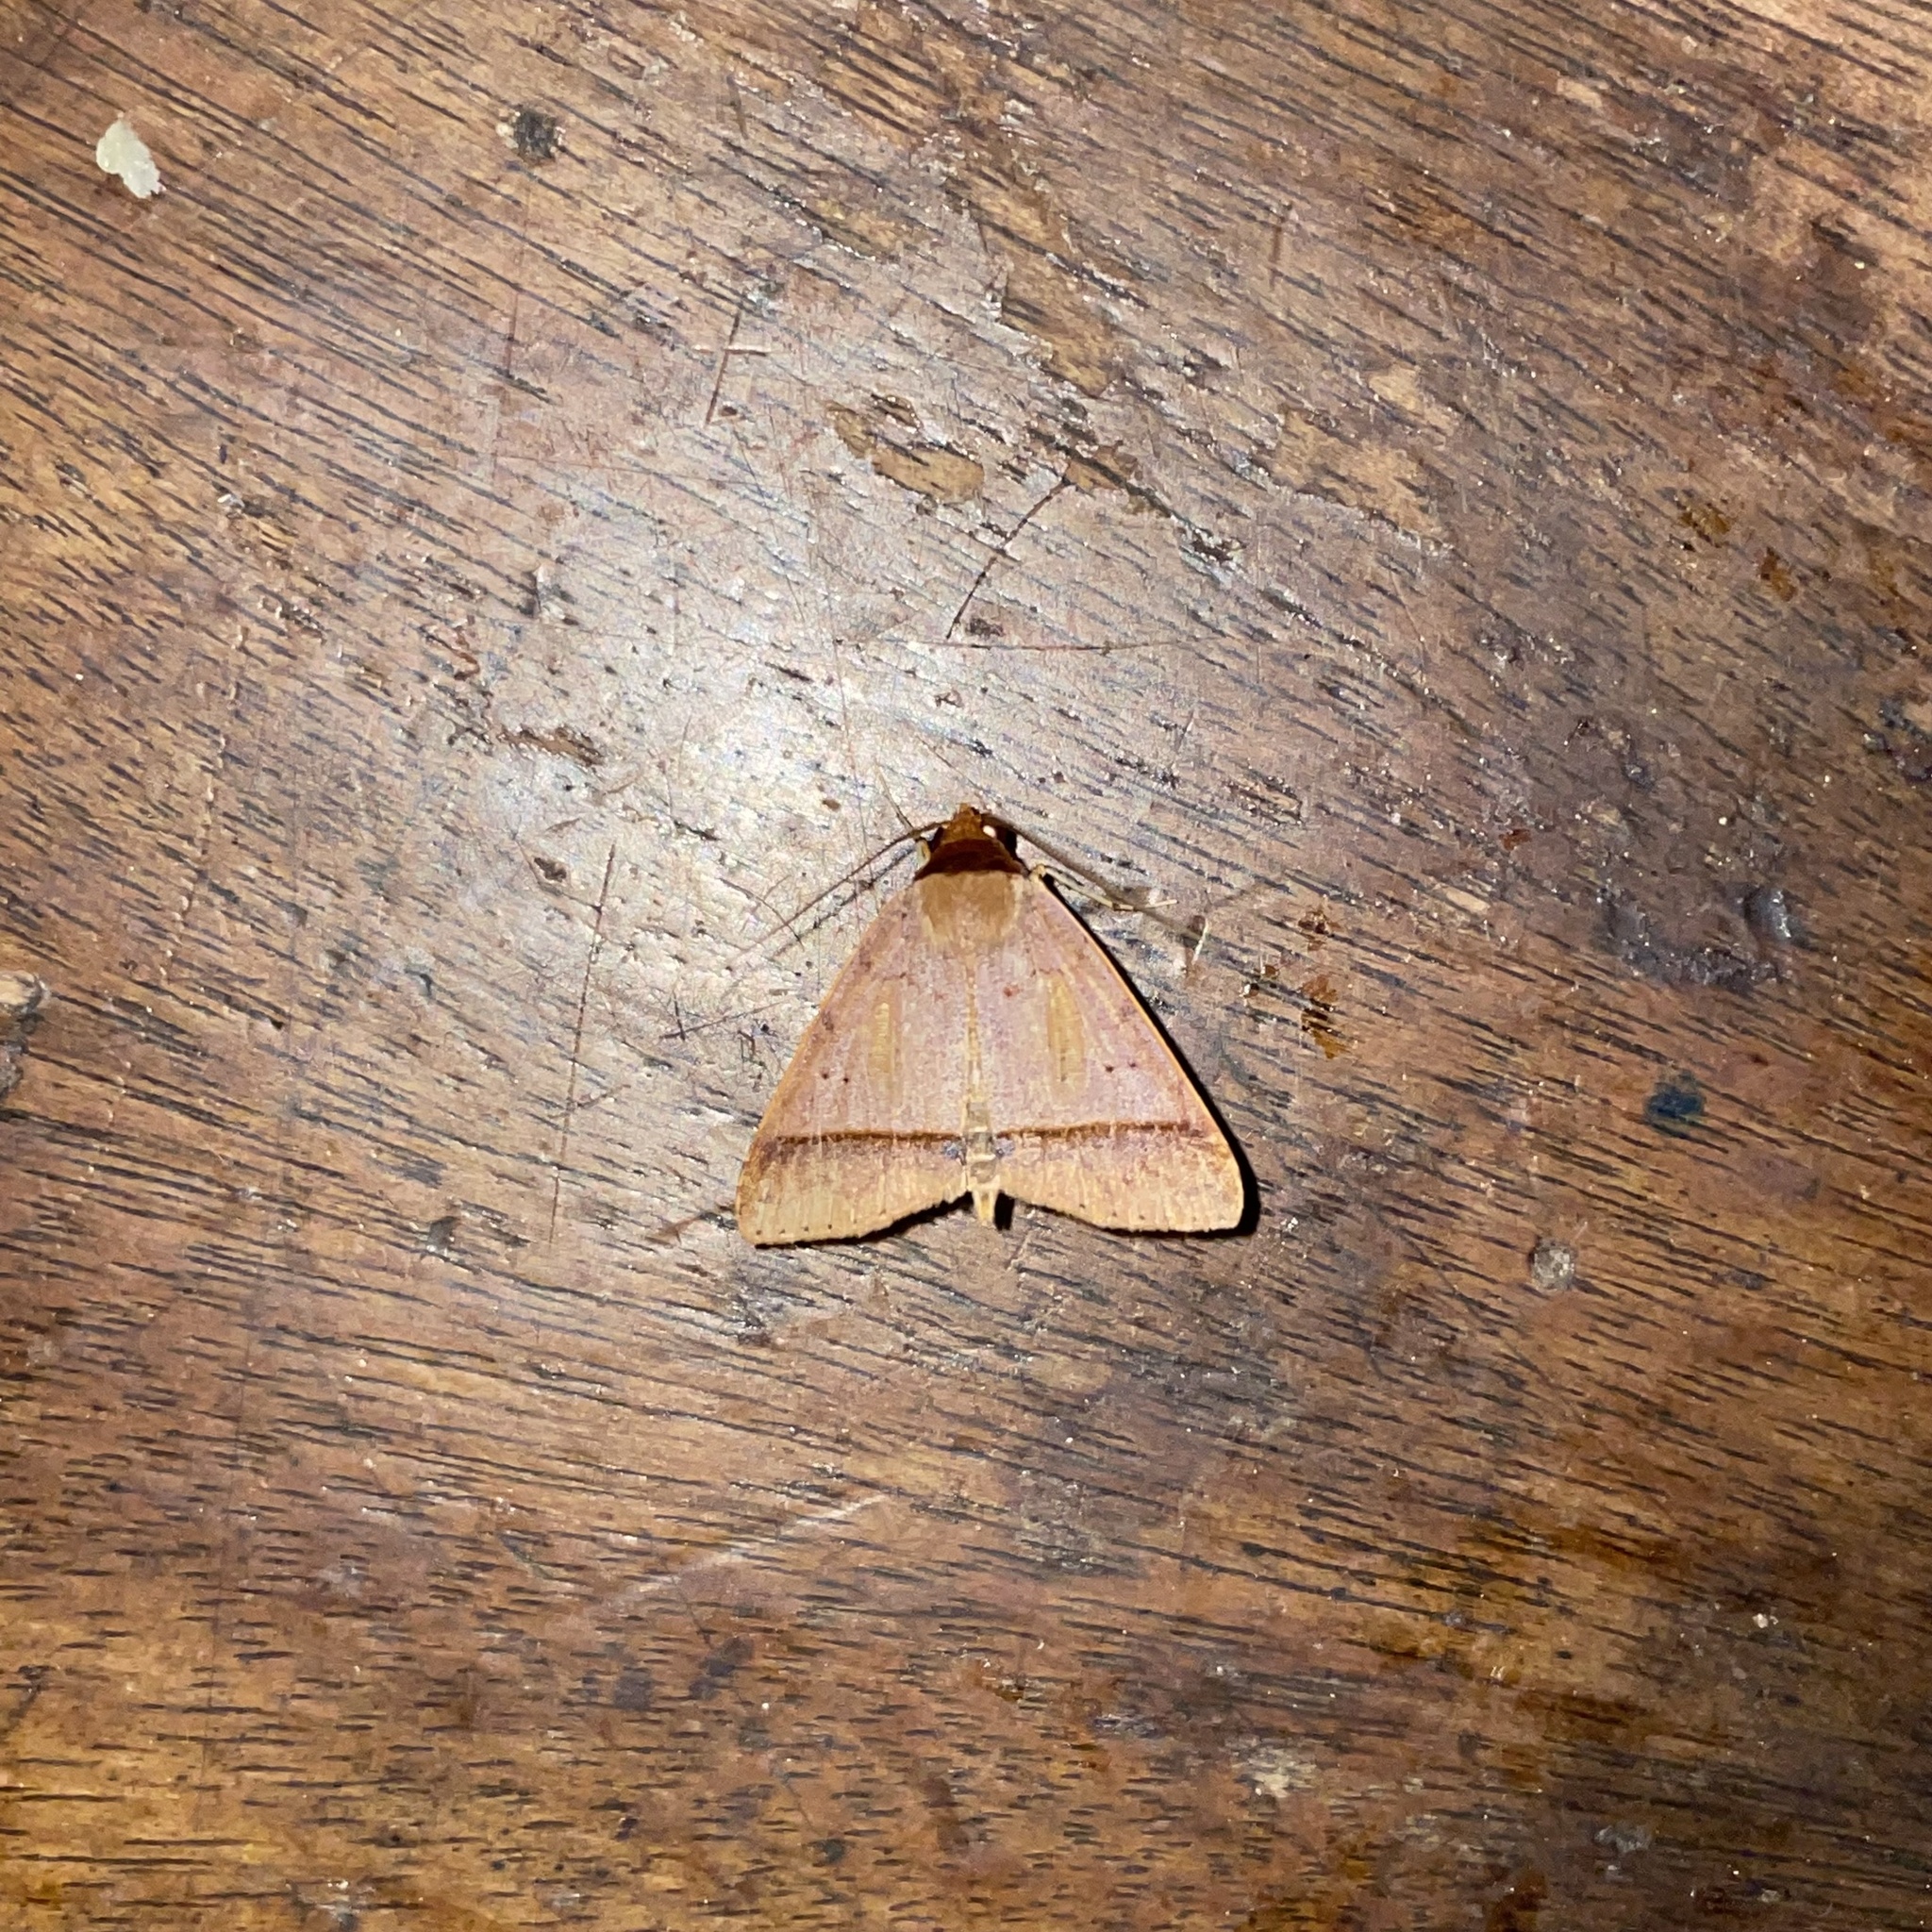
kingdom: Animalia
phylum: Arthropoda
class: Insecta
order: Lepidoptera
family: Erebidae
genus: Deinopa
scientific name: Deinopa percara
